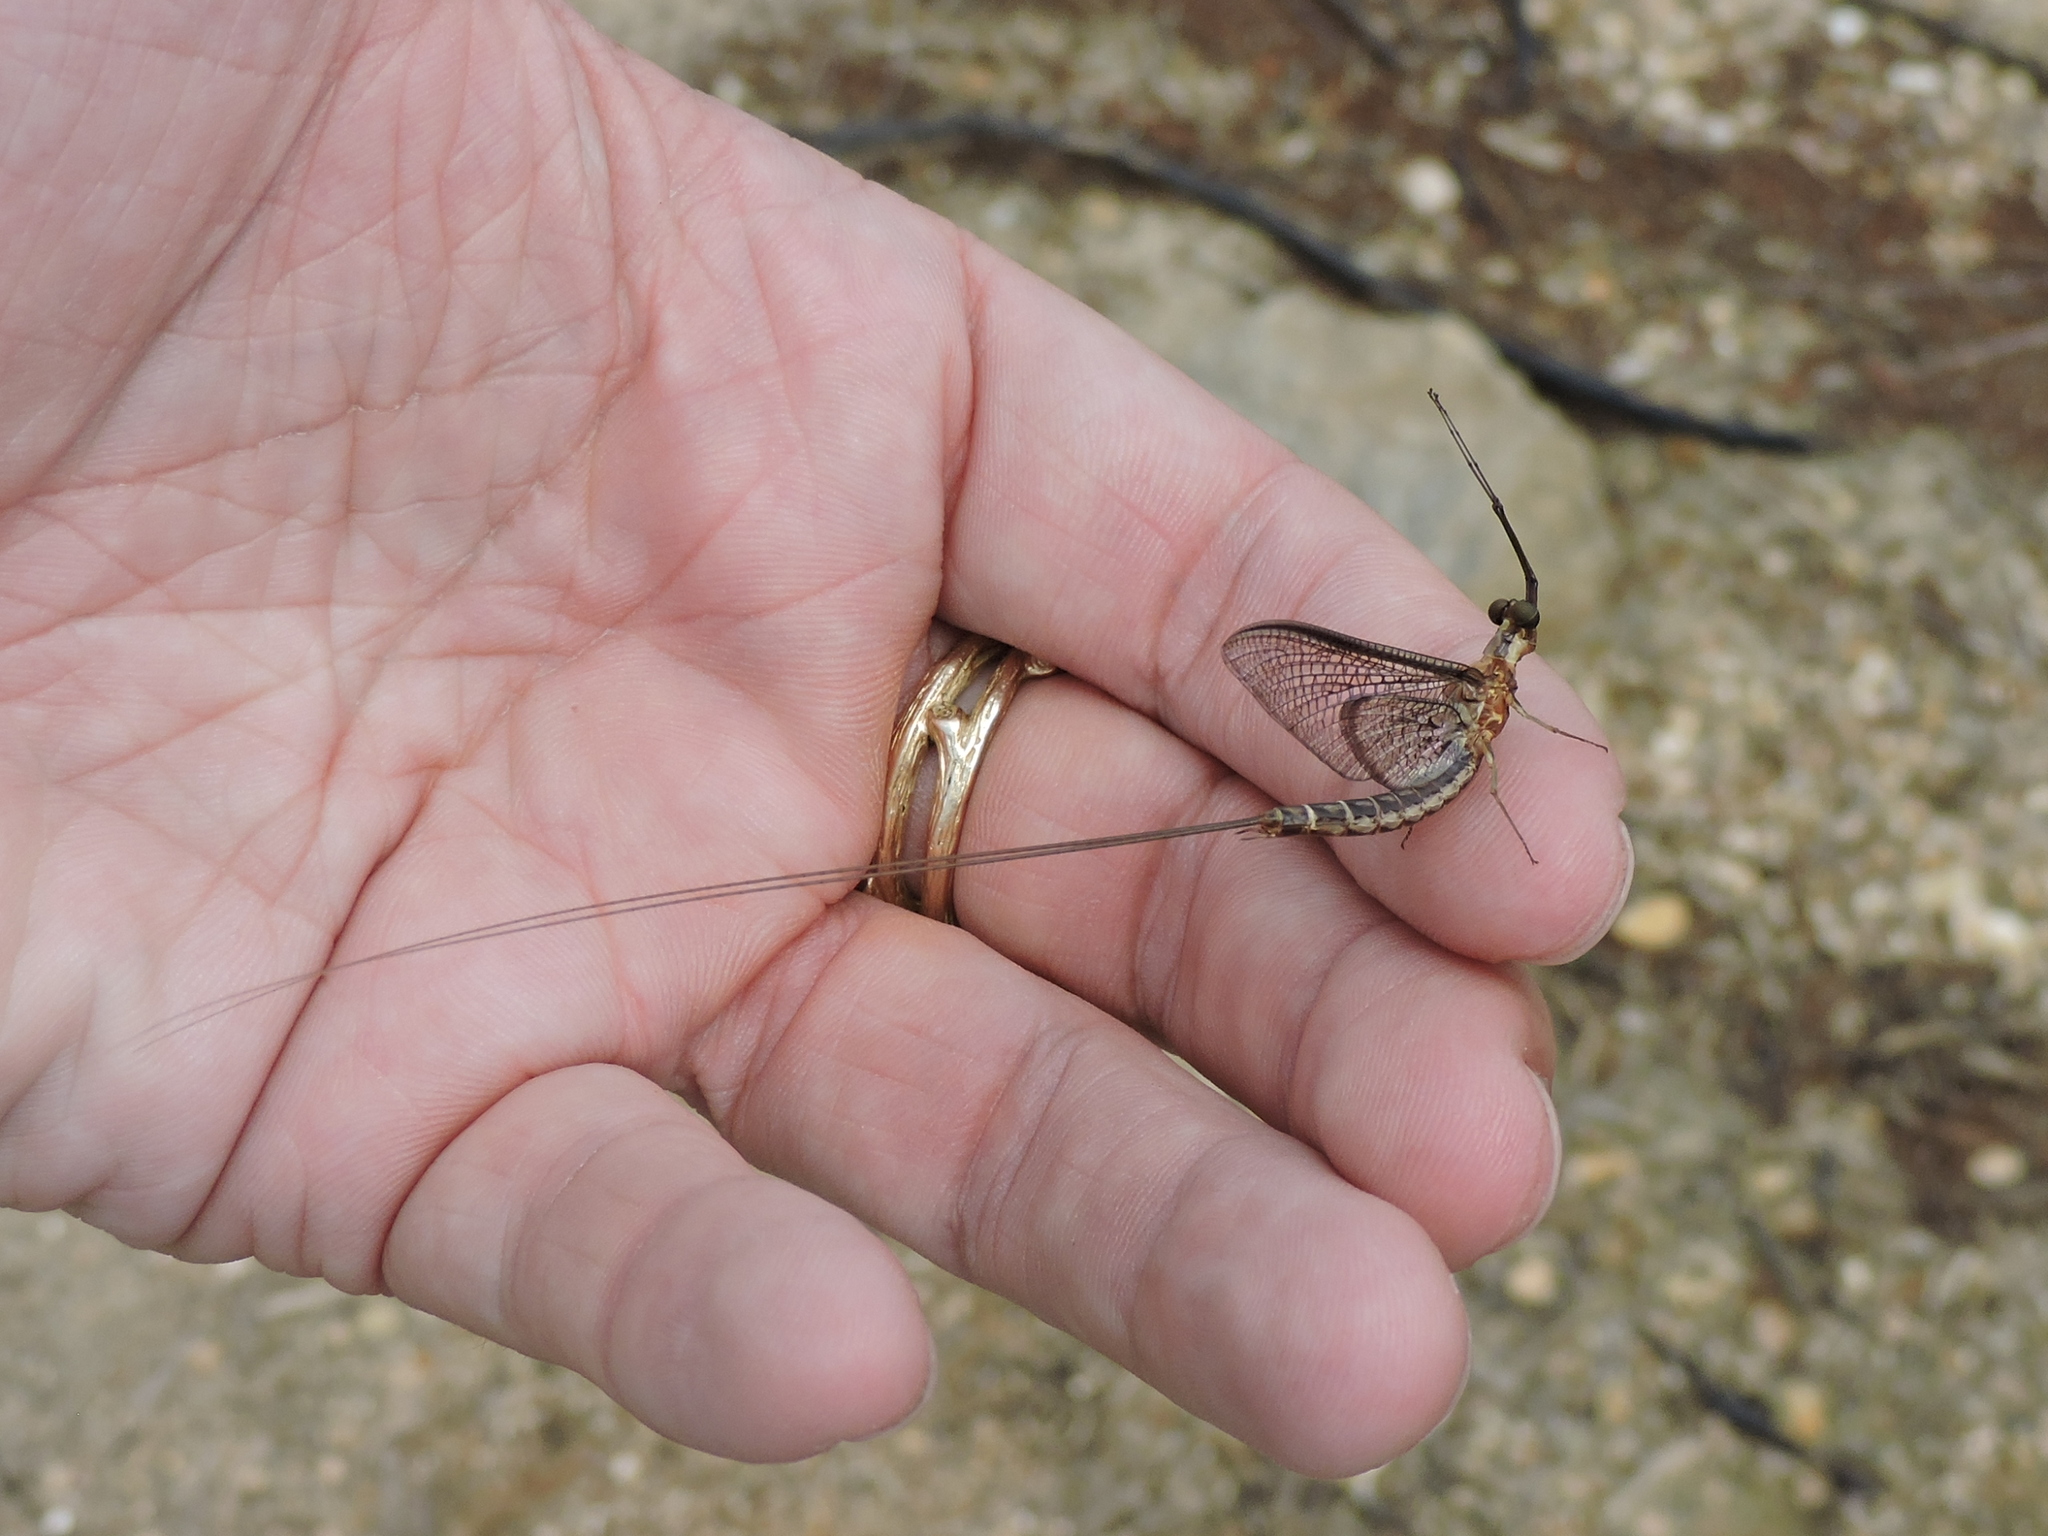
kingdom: Animalia
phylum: Arthropoda
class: Insecta
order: Ephemeroptera
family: Ephemeridae
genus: Hexagenia
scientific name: Hexagenia bilineata
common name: Emergent mayfly
